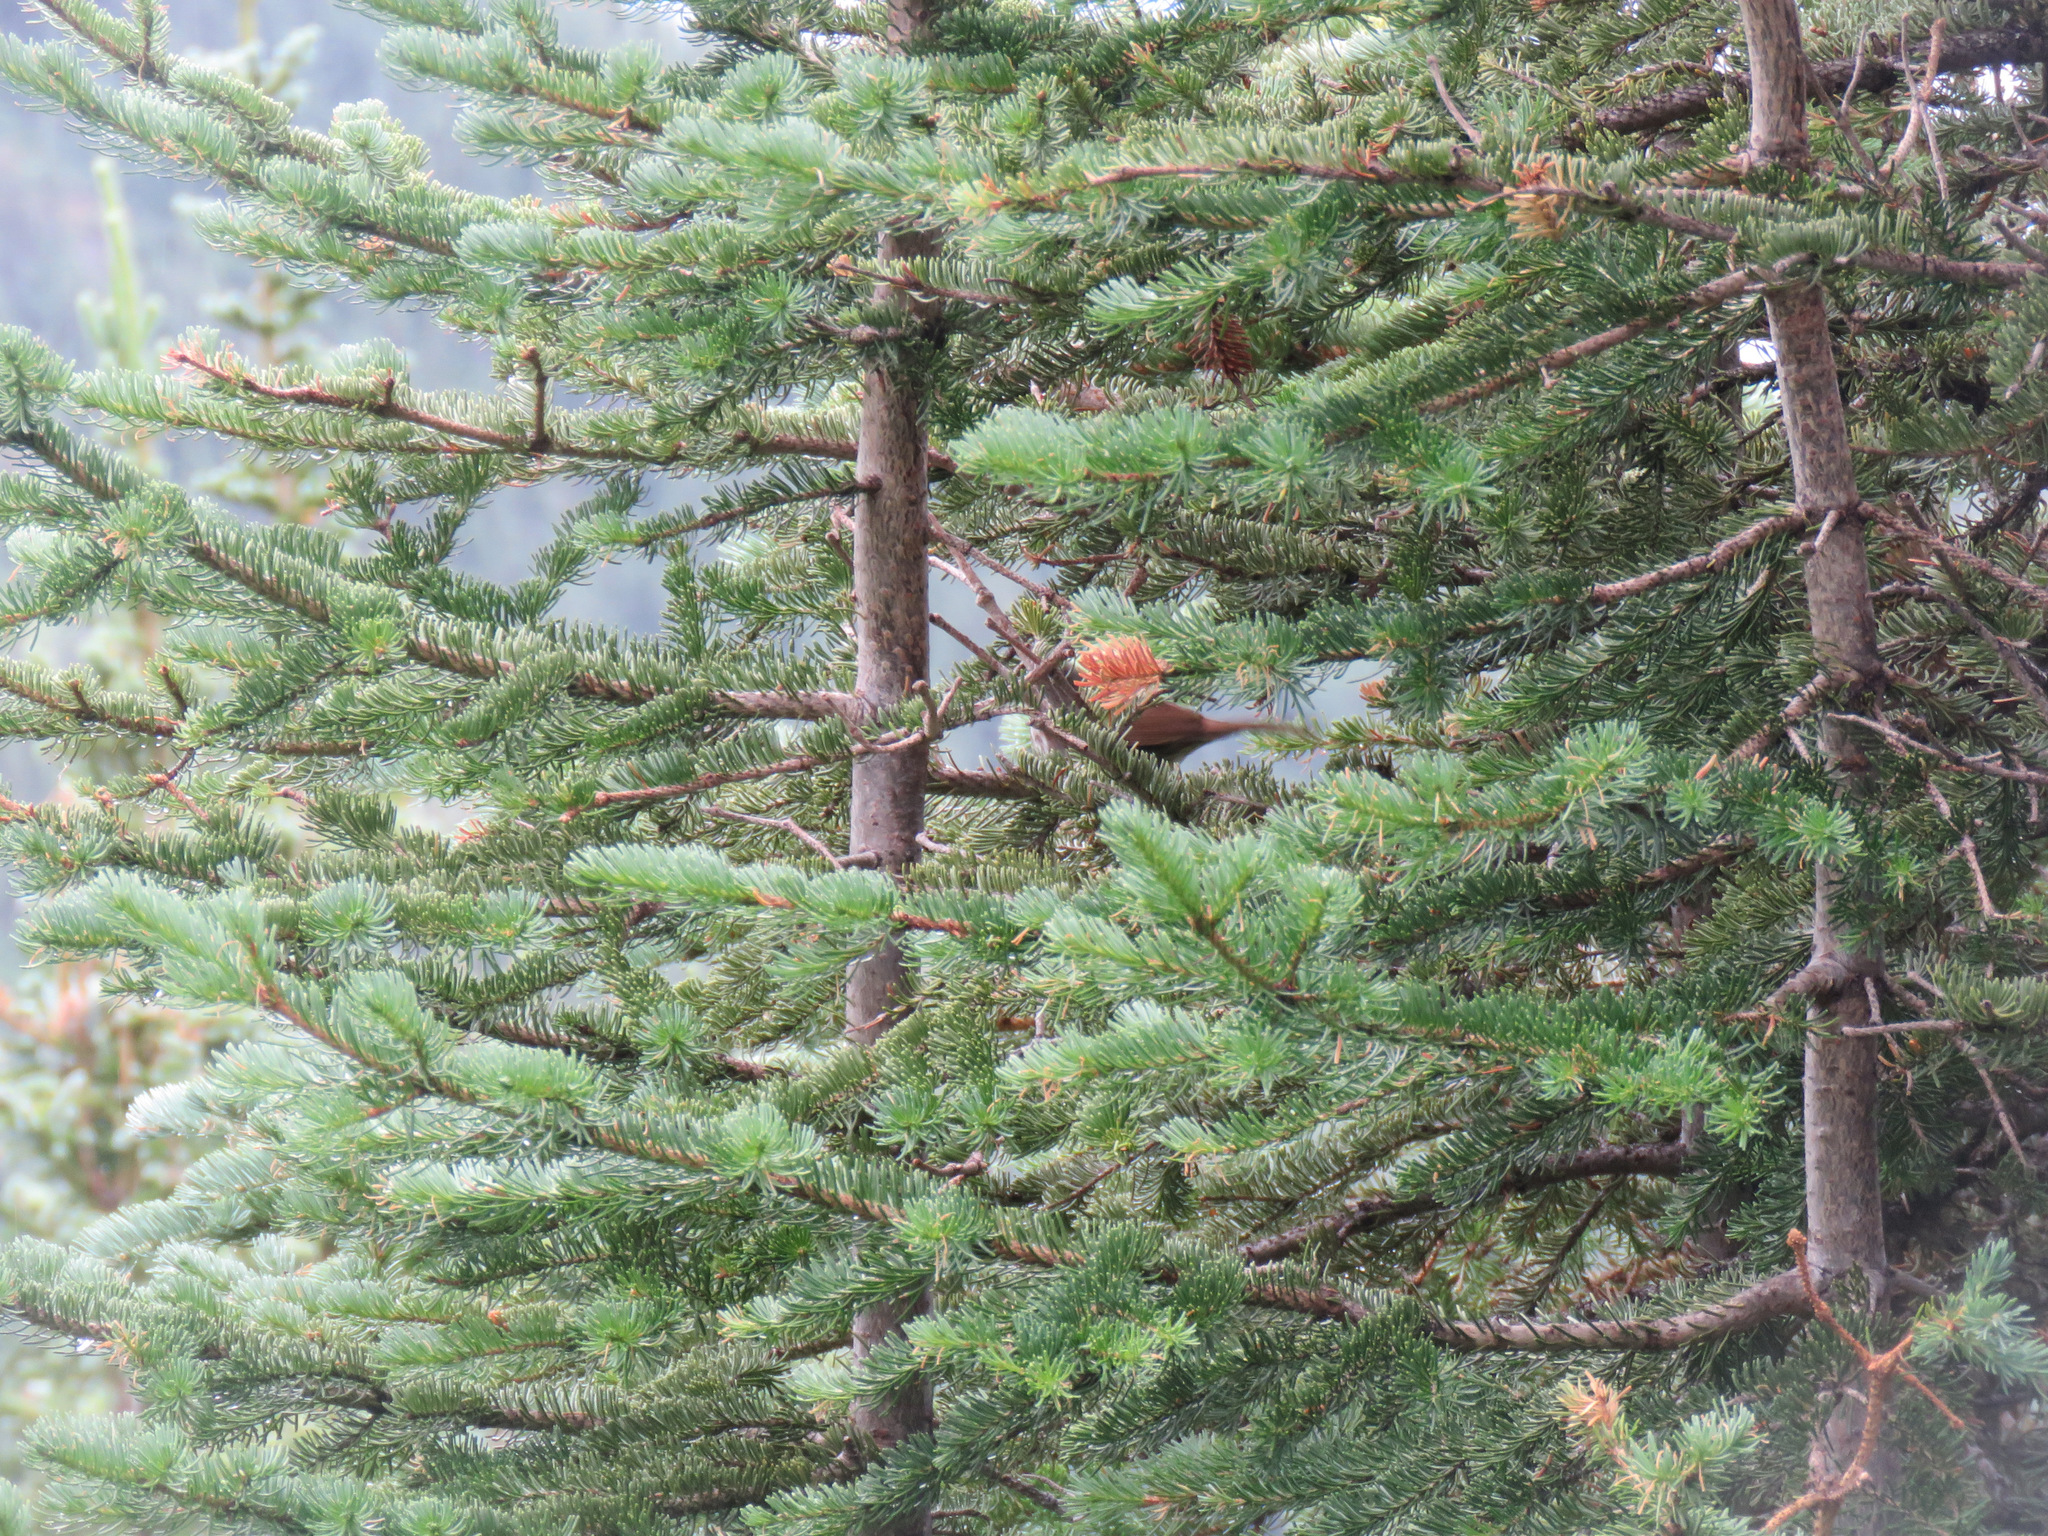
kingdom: Animalia
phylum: Chordata
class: Aves
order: Passeriformes
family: Passerellidae
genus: Passerella
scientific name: Passerella iliaca
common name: Fox sparrow
